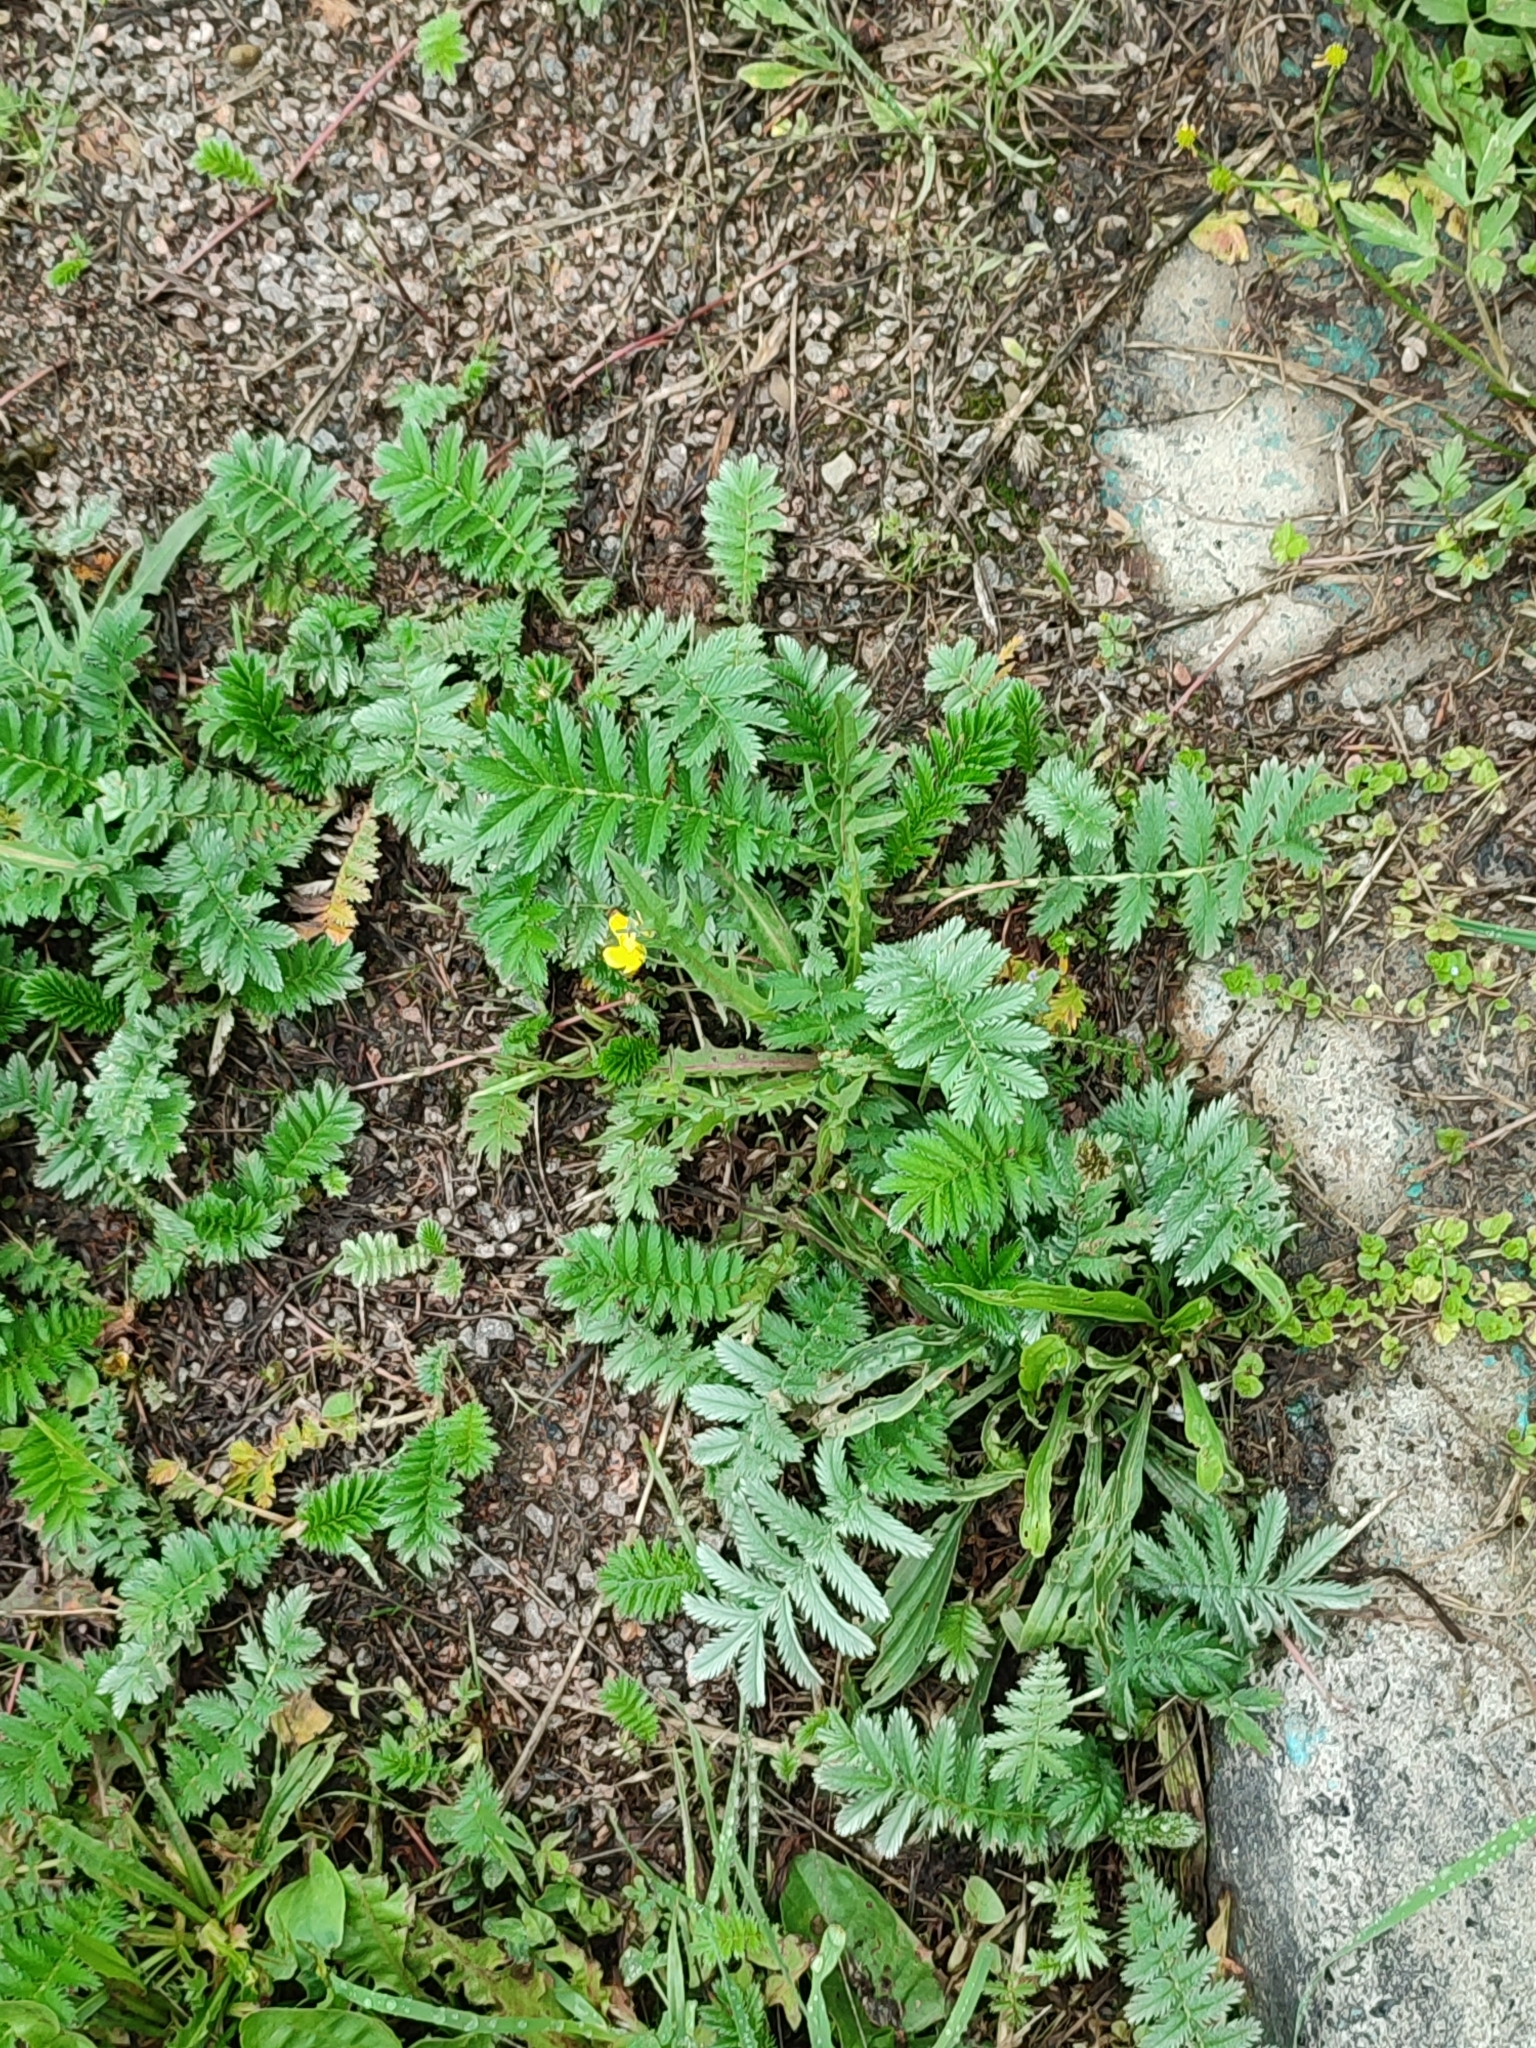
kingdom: Plantae
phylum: Tracheophyta
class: Magnoliopsida
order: Rosales
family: Rosaceae
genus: Argentina
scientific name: Argentina anserina
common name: Common silverweed
